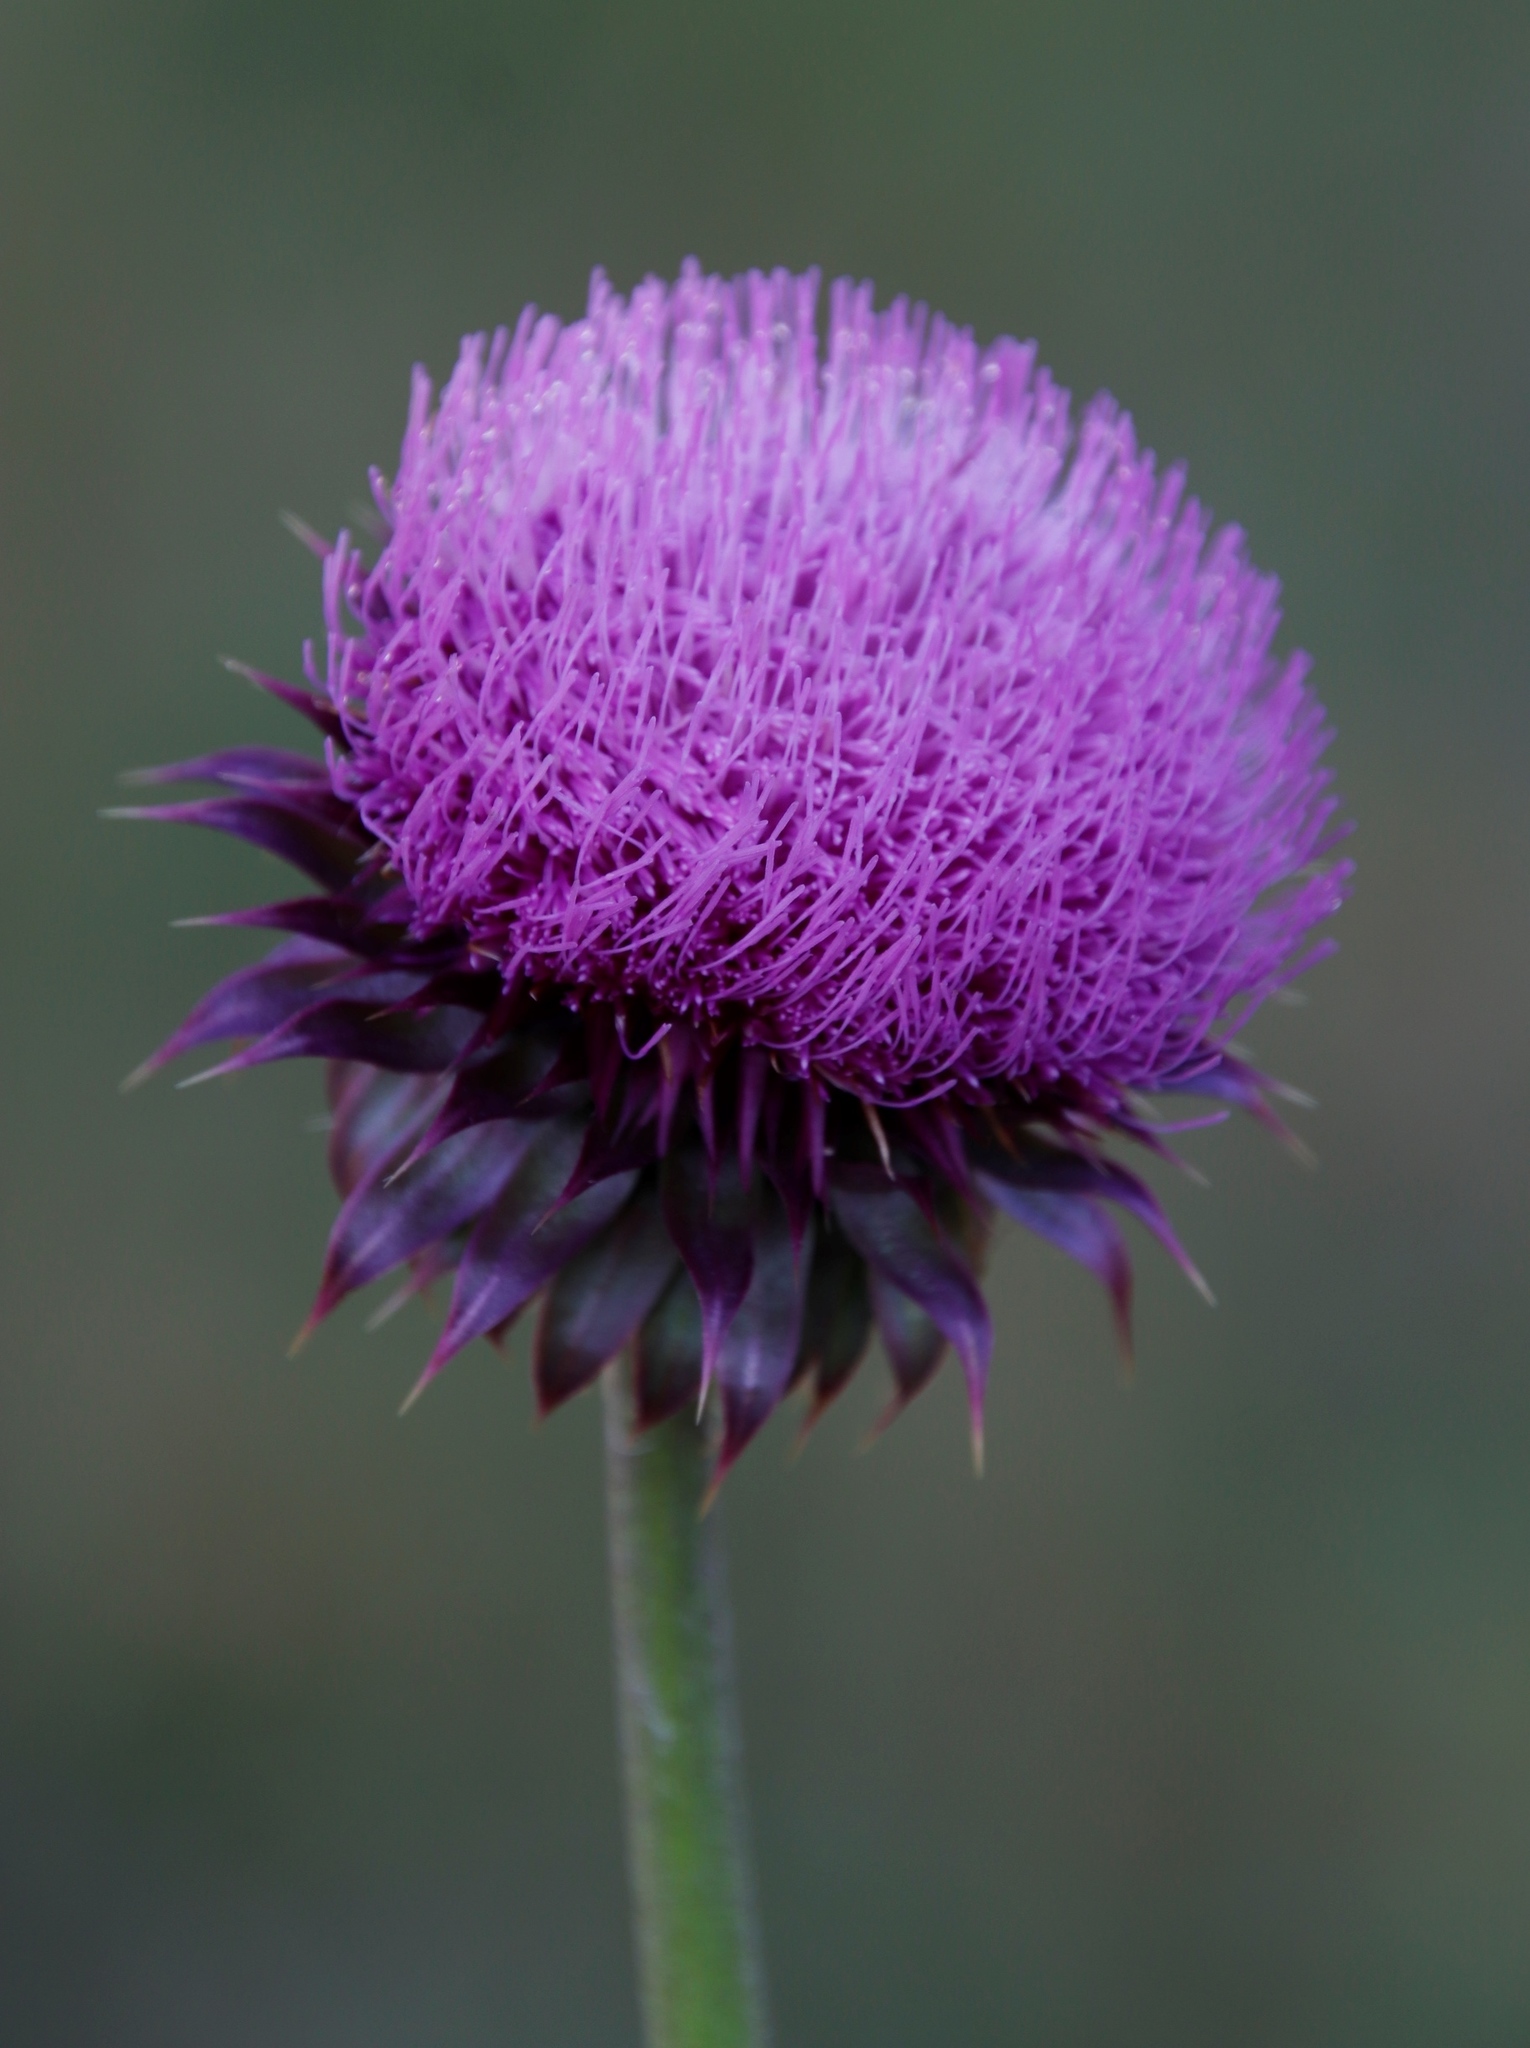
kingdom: Plantae
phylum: Tracheophyta
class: Magnoliopsida
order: Asterales
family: Asteraceae
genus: Carduus
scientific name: Carduus nutans
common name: Musk thistle
